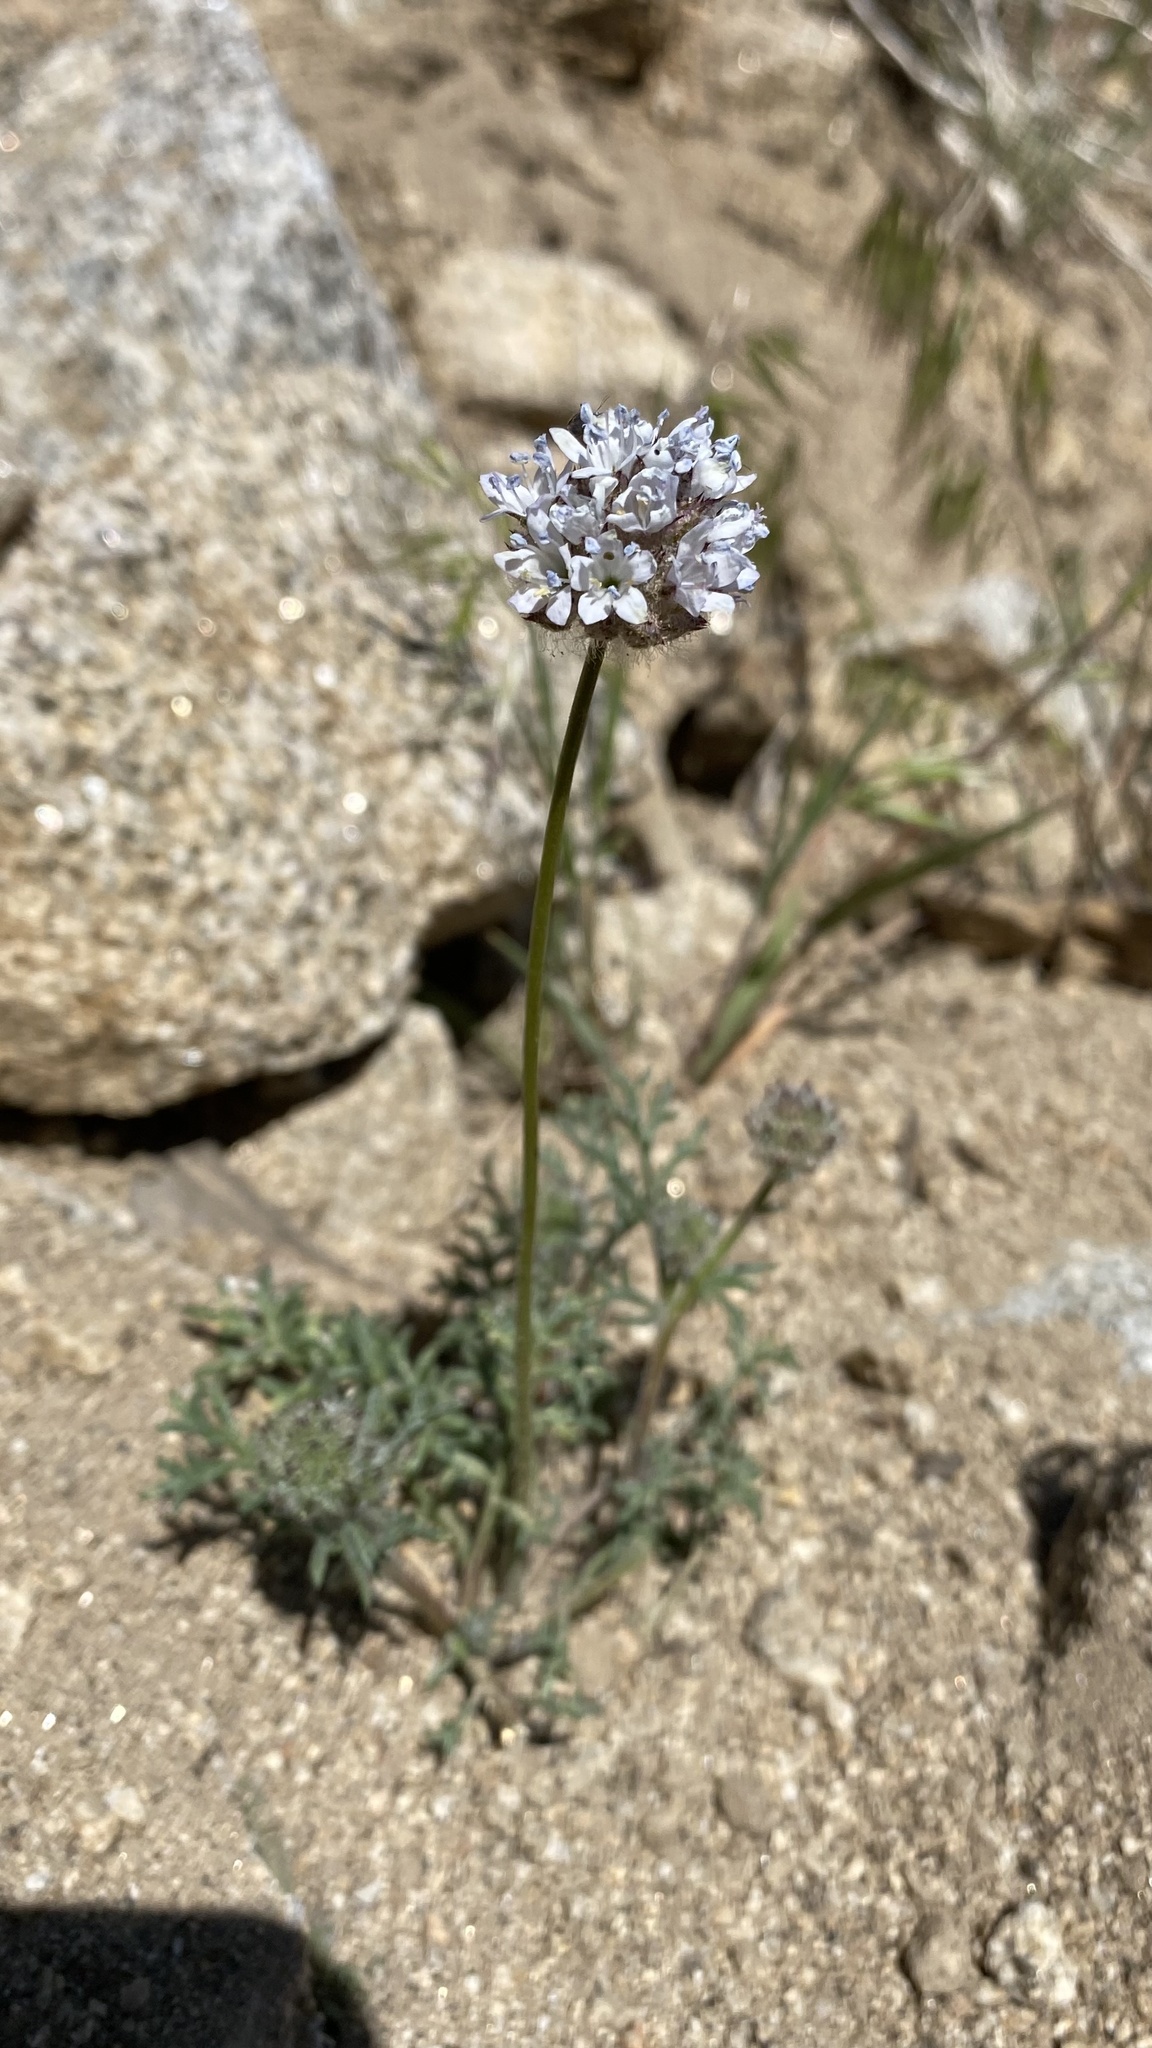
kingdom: Plantae
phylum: Tracheophyta
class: Magnoliopsida
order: Ericales
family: Polemoniaceae
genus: Gilia
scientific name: Gilia capitata
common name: Bluehead gilia
